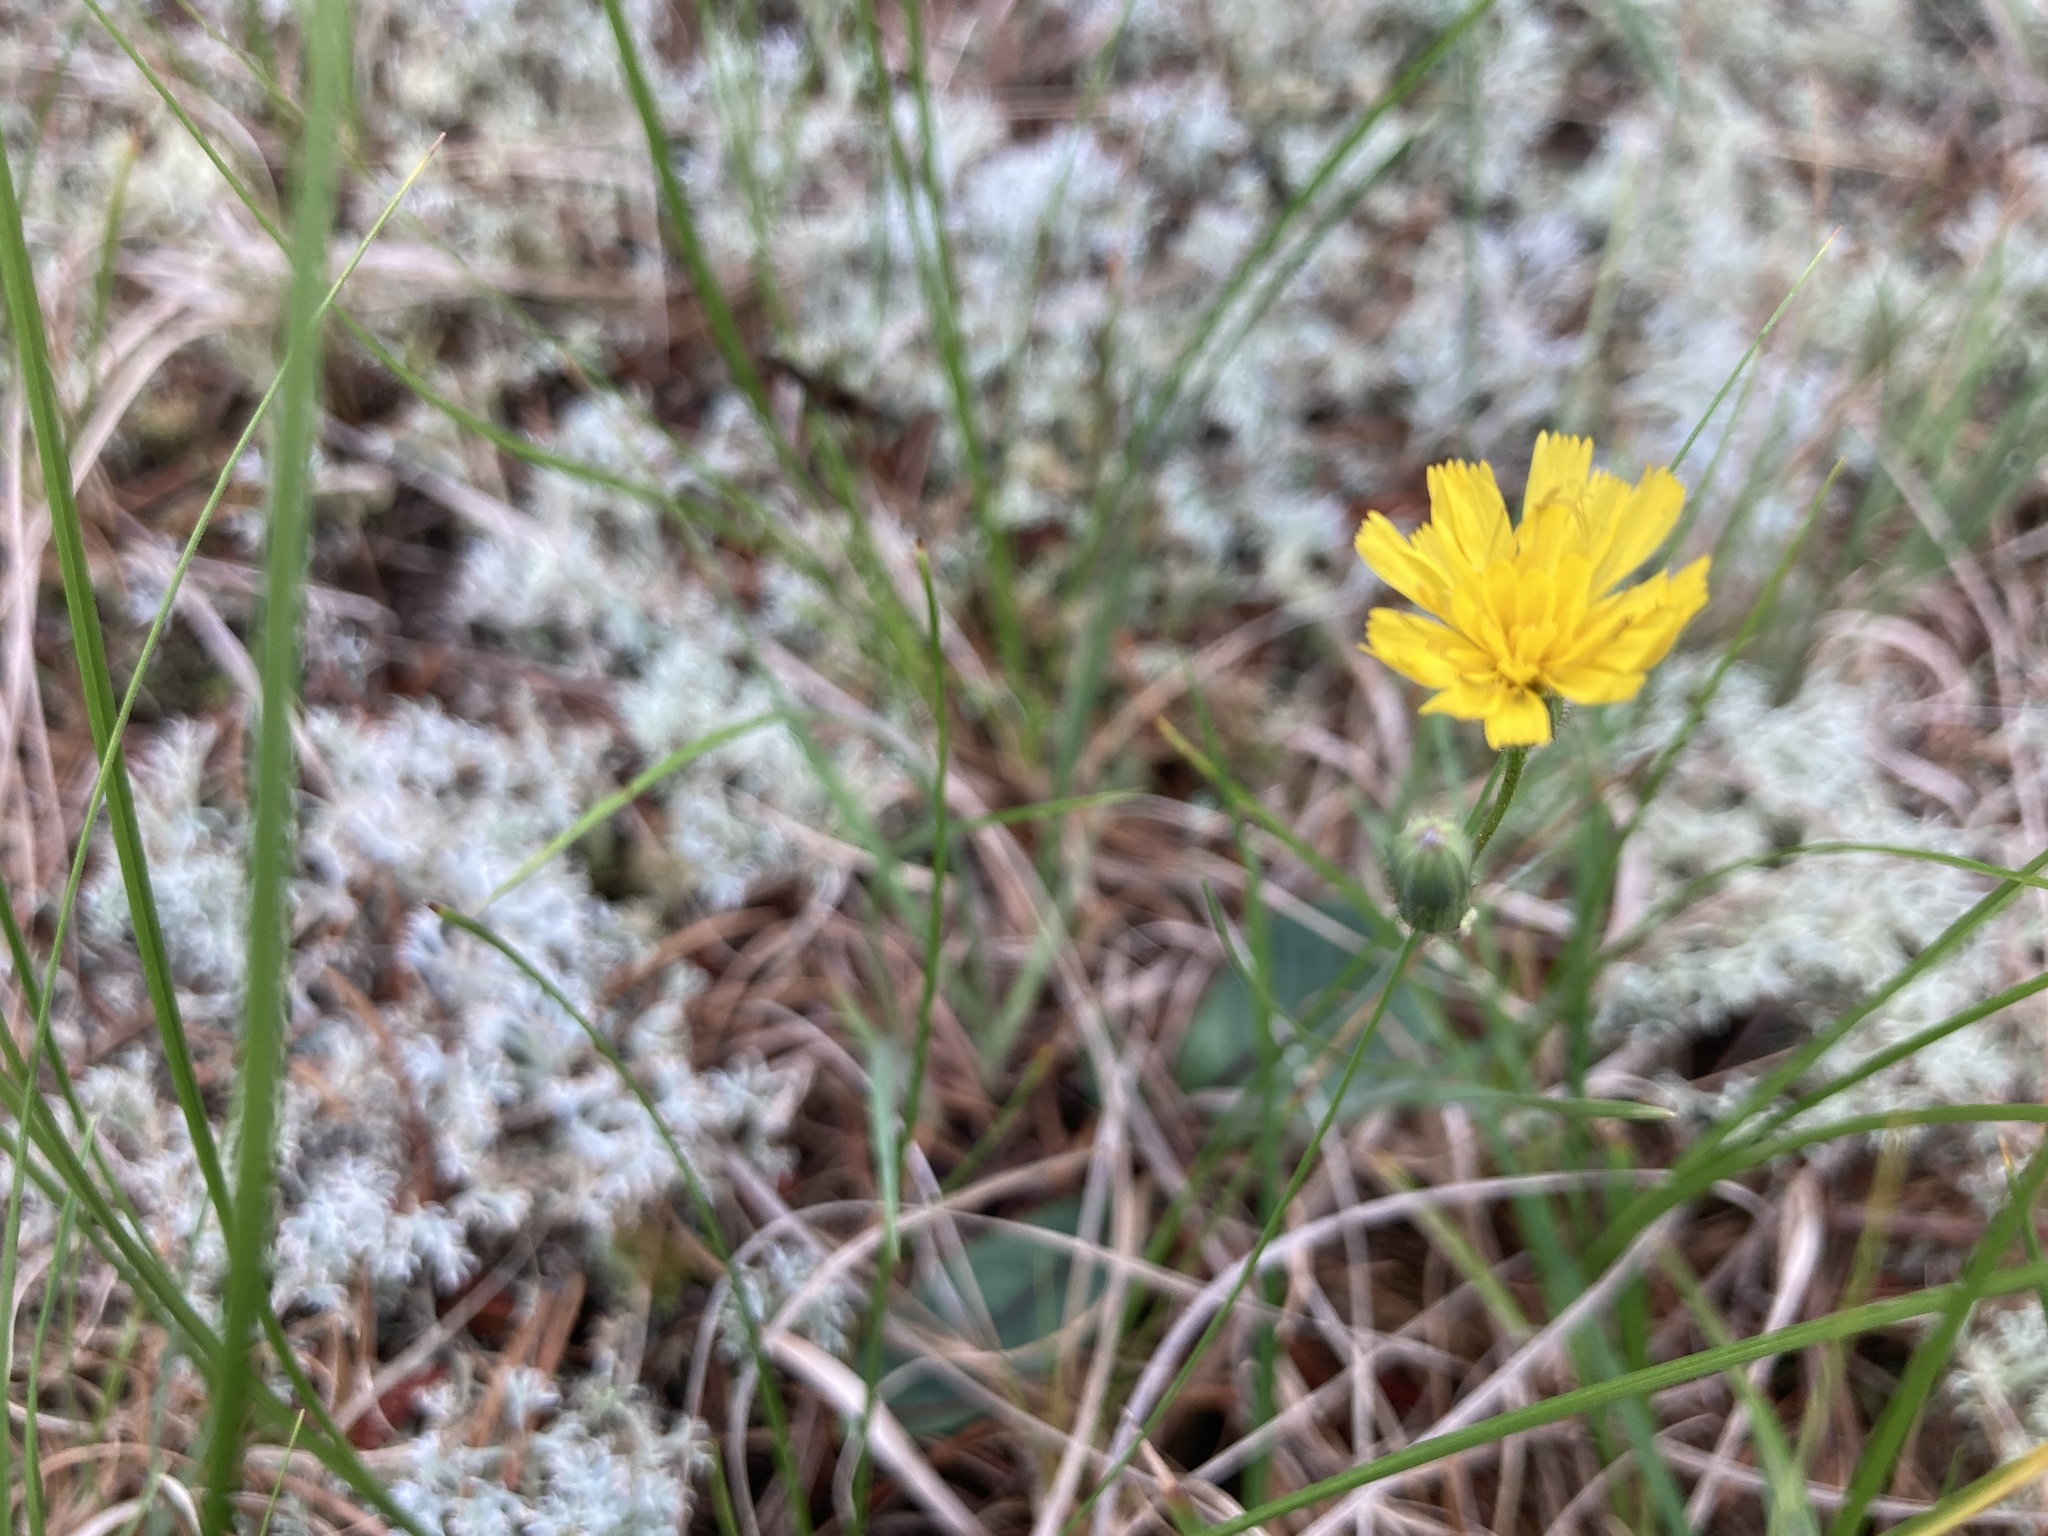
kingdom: Plantae
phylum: Tracheophyta
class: Magnoliopsida
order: Asterales
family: Asteraceae
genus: Hieracium
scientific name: Hieracium venosum
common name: Rattlesnake hawkweed
